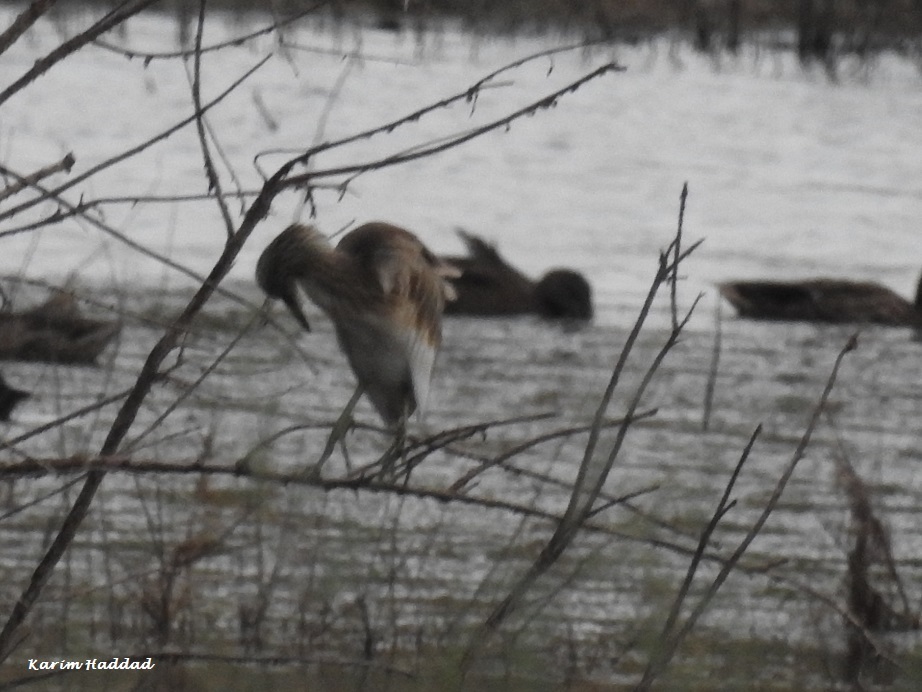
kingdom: Animalia
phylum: Chordata
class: Aves
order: Pelecaniformes
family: Ardeidae
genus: Ardeola
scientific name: Ardeola ralloides
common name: Squacco heron
